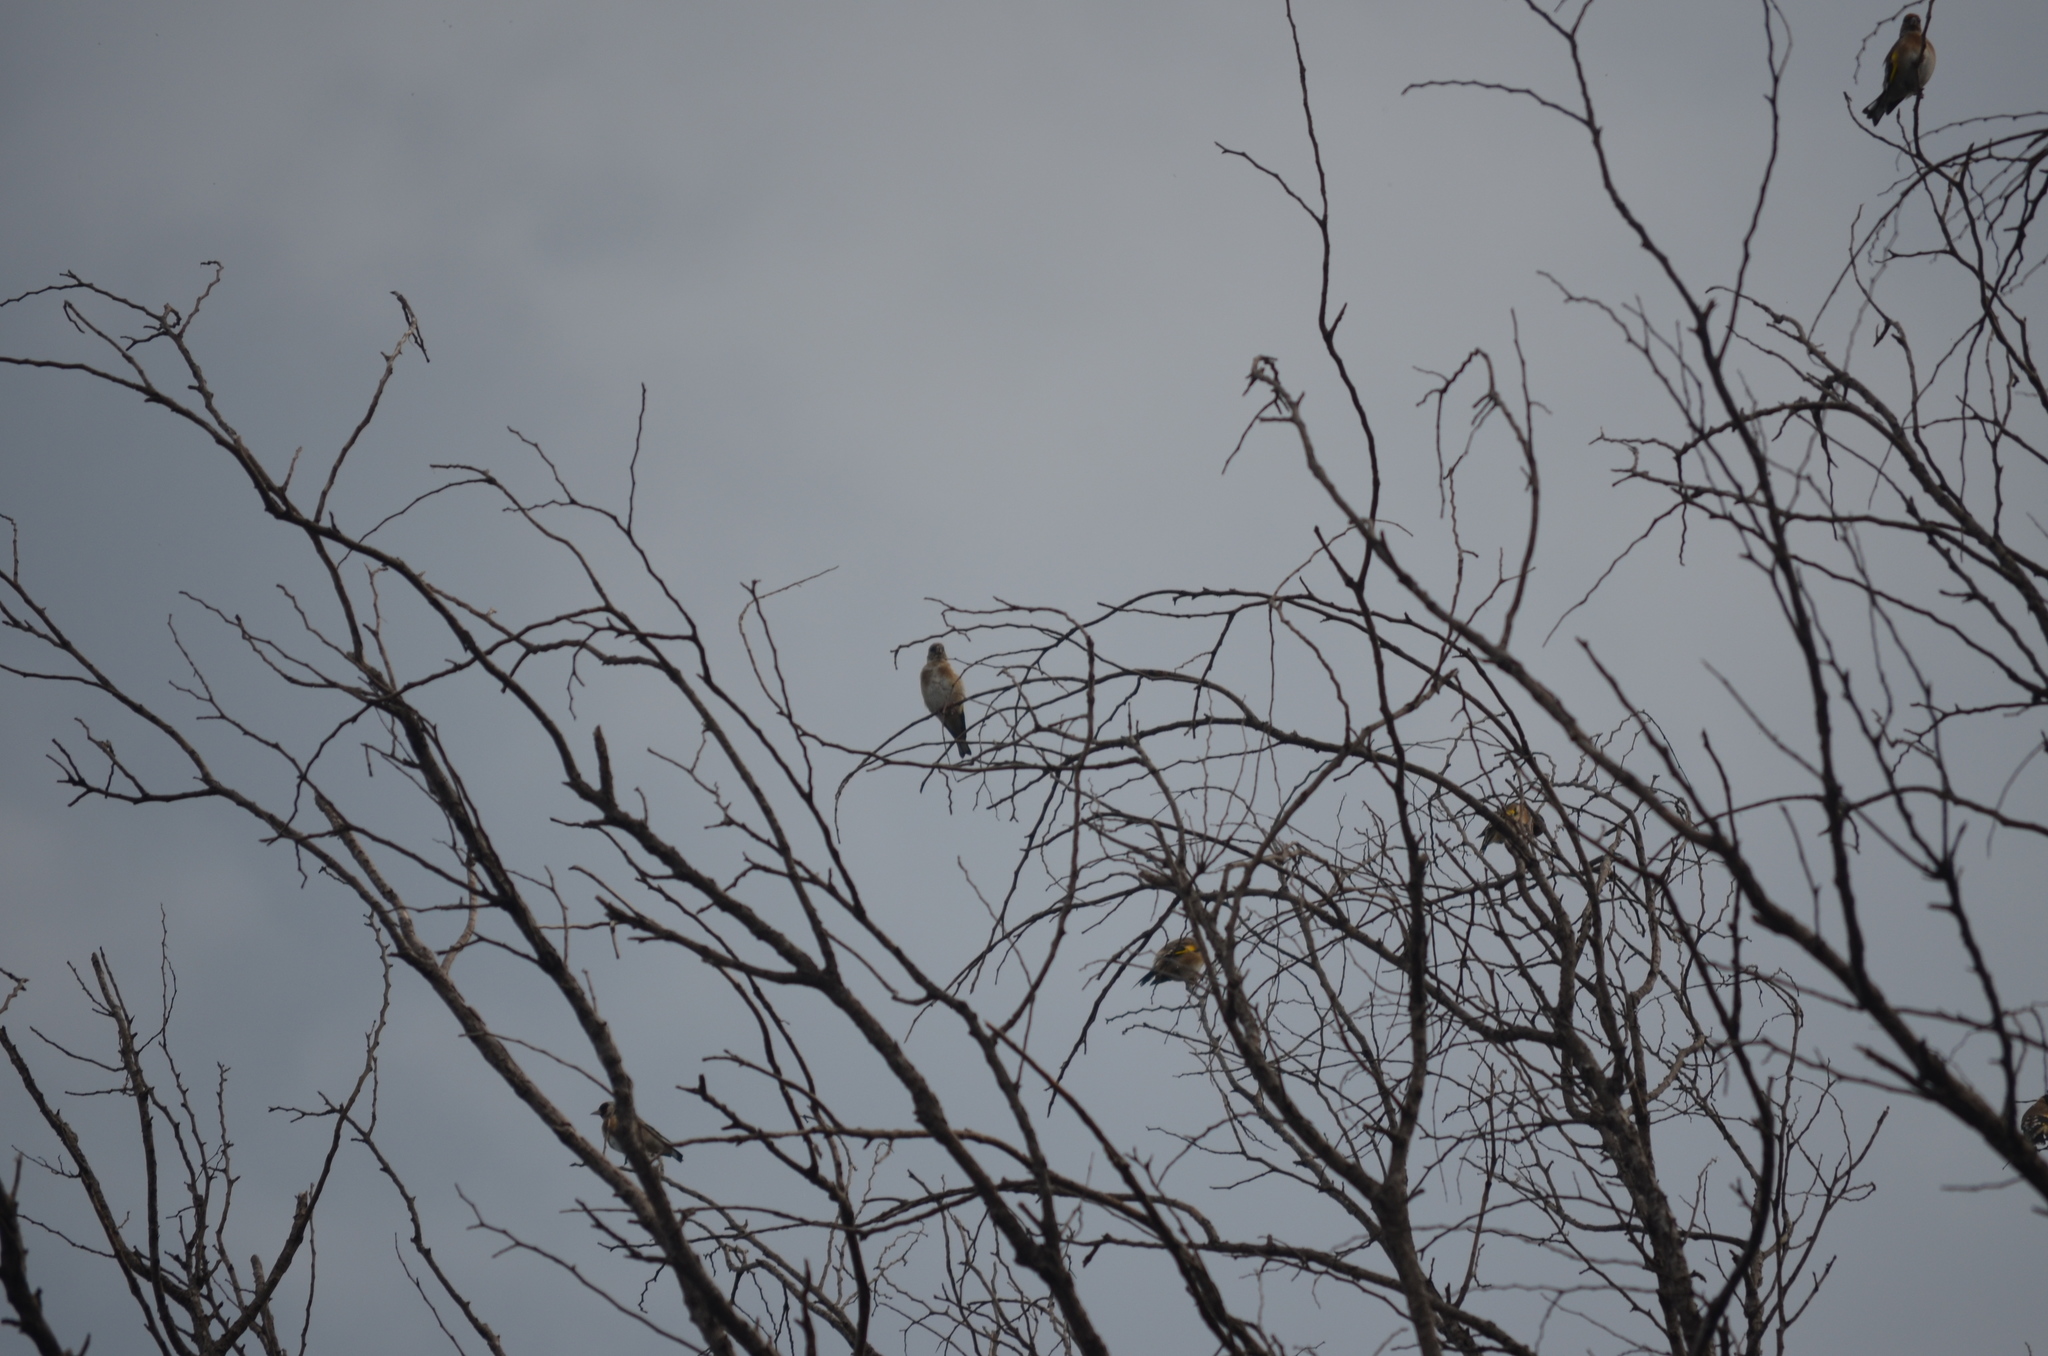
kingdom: Animalia
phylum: Chordata
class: Aves
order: Passeriformes
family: Fringillidae
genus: Carduelis
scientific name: Carduelis carduelis
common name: European goldfinch
